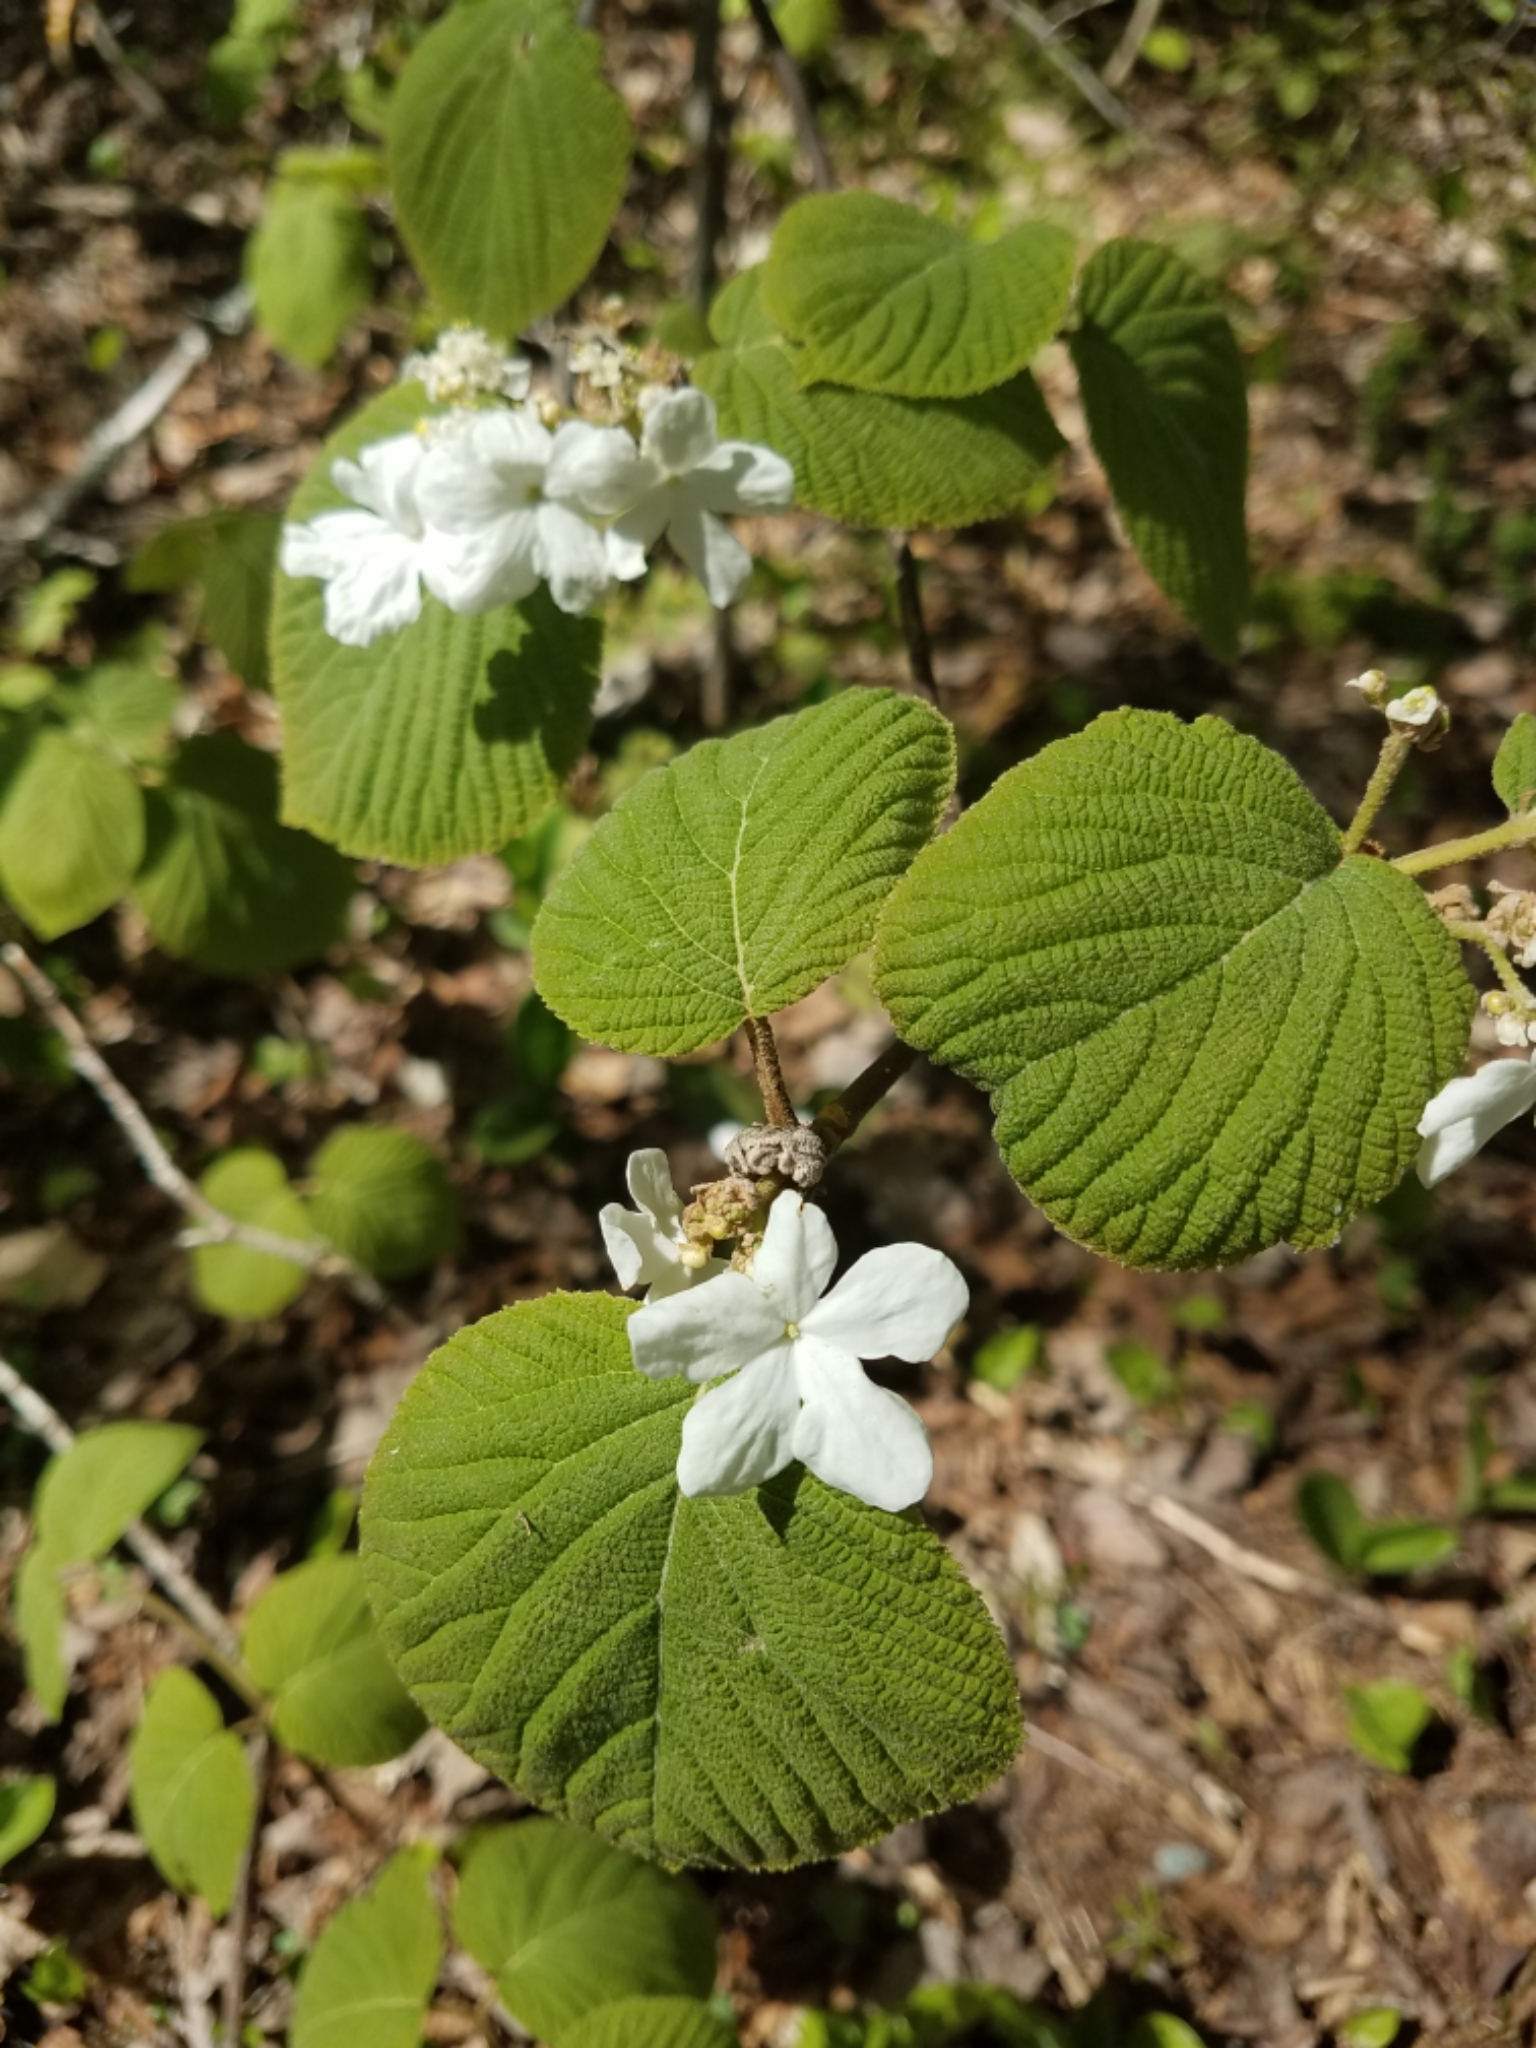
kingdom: Plantae
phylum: Tracheophyta
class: Magnoliopsida
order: Dipsacales
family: Viburnaceae
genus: Viburnum
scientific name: Viburnum lantanoides
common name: Hobblebush
